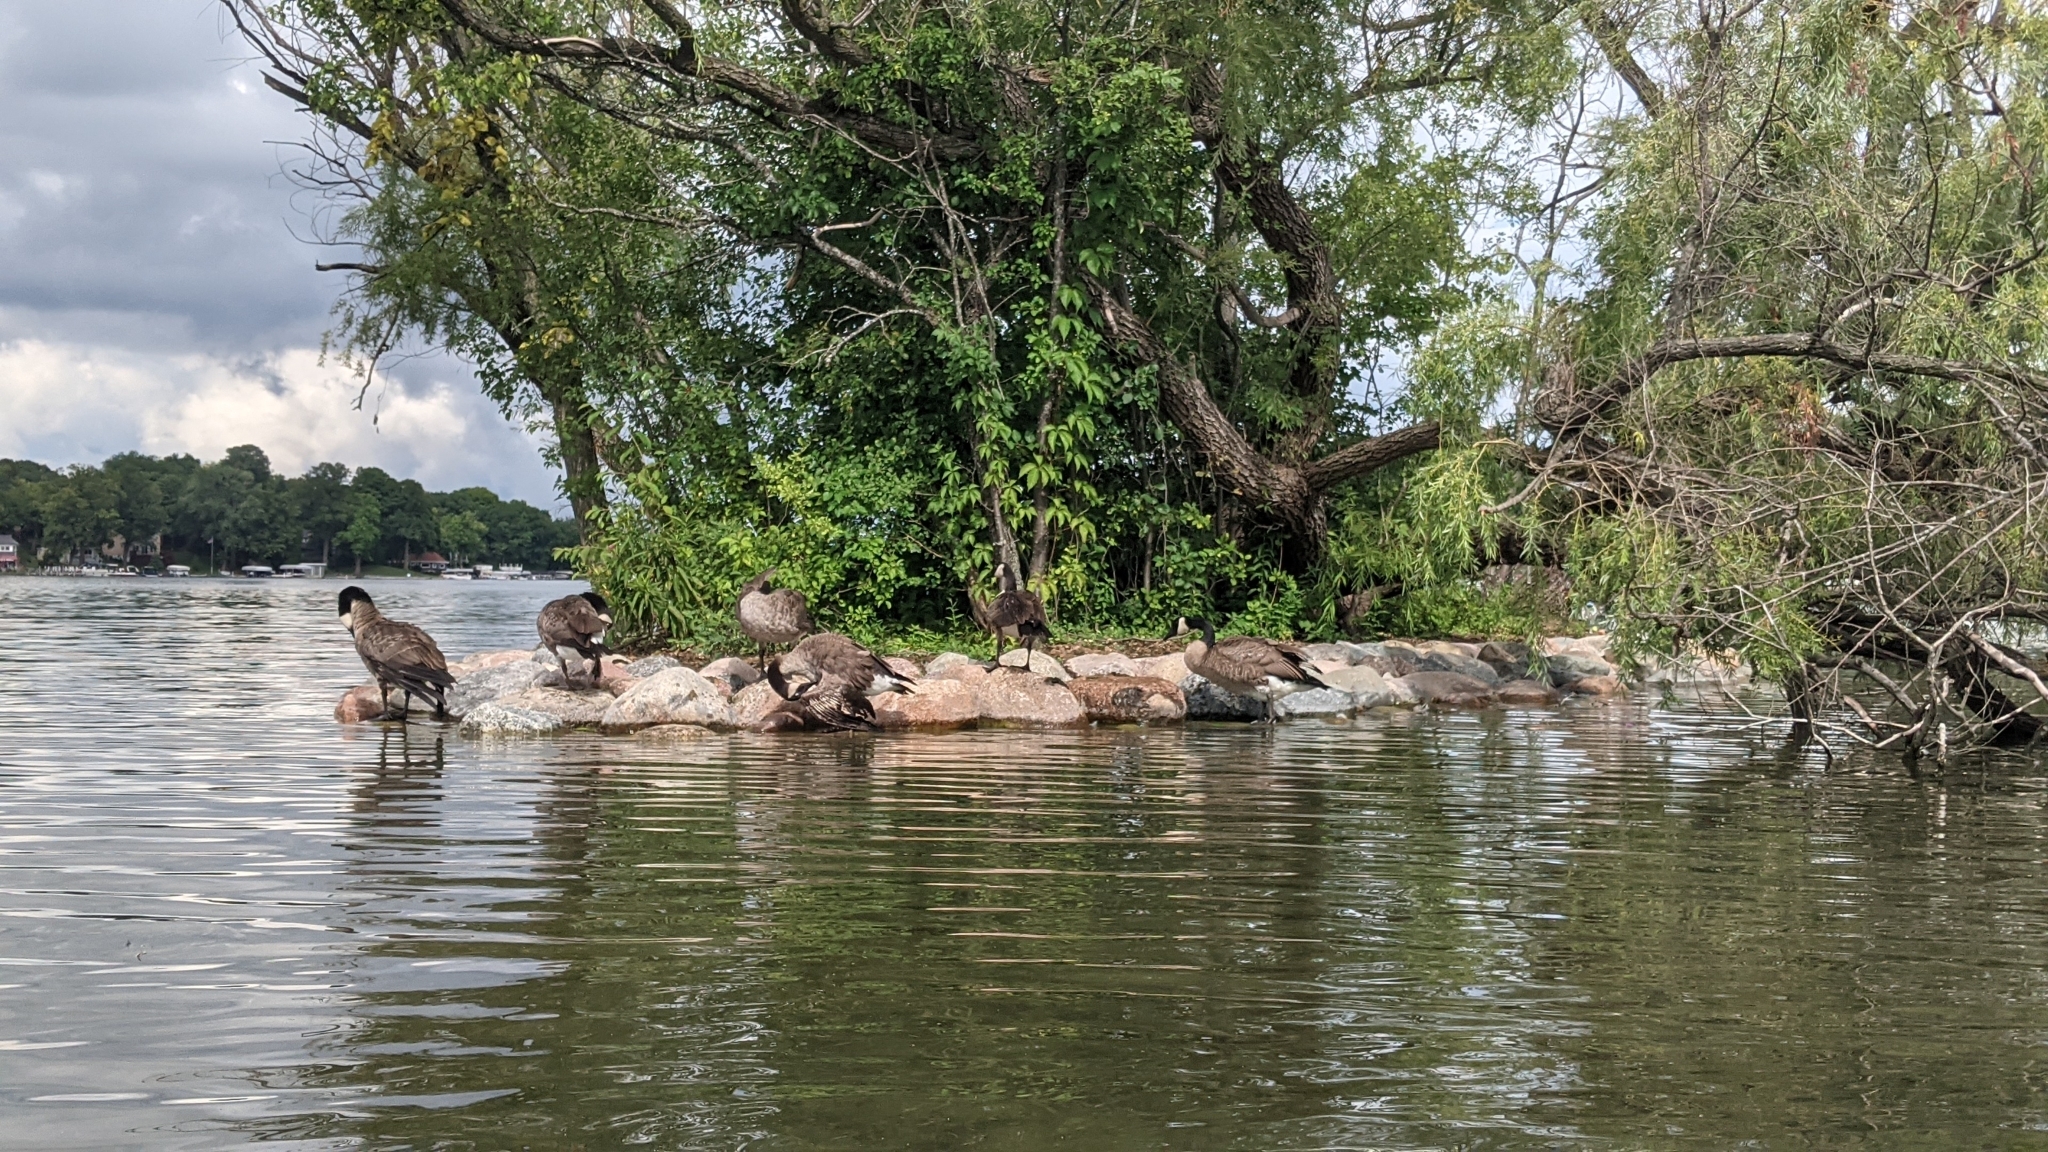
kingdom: Animalia
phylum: Chordata
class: Aves
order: Anseriformes
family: Anatidae
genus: Branta
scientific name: Branta canadensis
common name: Canada goose
